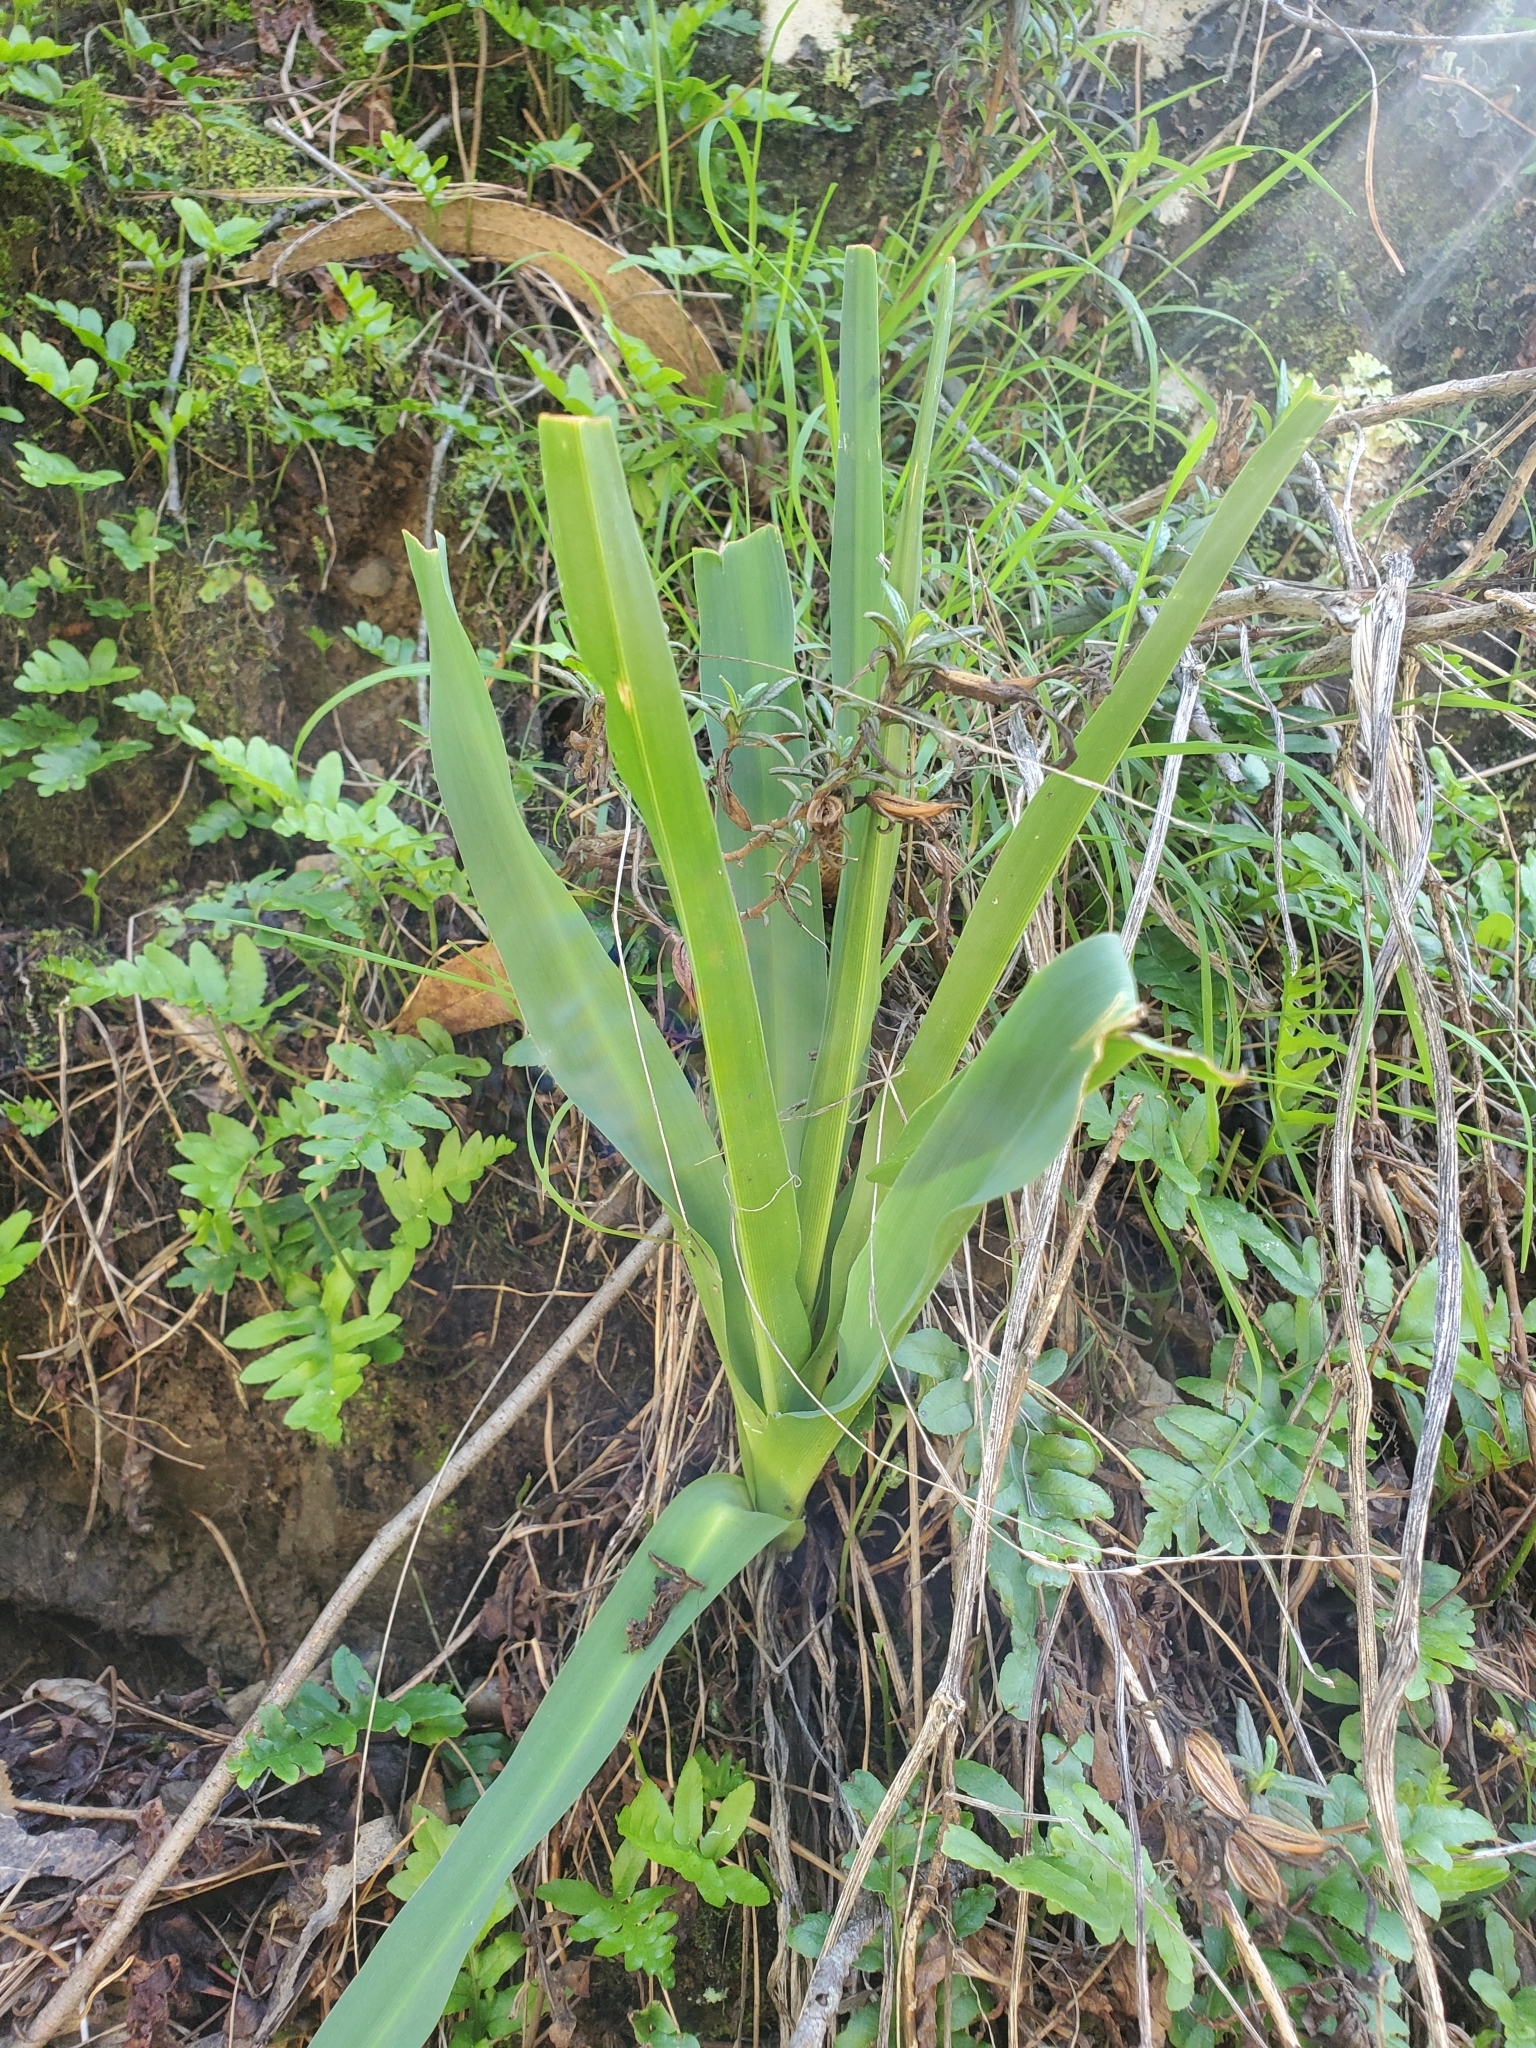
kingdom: Plantae
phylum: Tracheophyta
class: Liliopsida
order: Asparagales
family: Asparagaceae
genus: Chlorogalum
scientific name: Chlorogalum pomeridianum
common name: Amole
